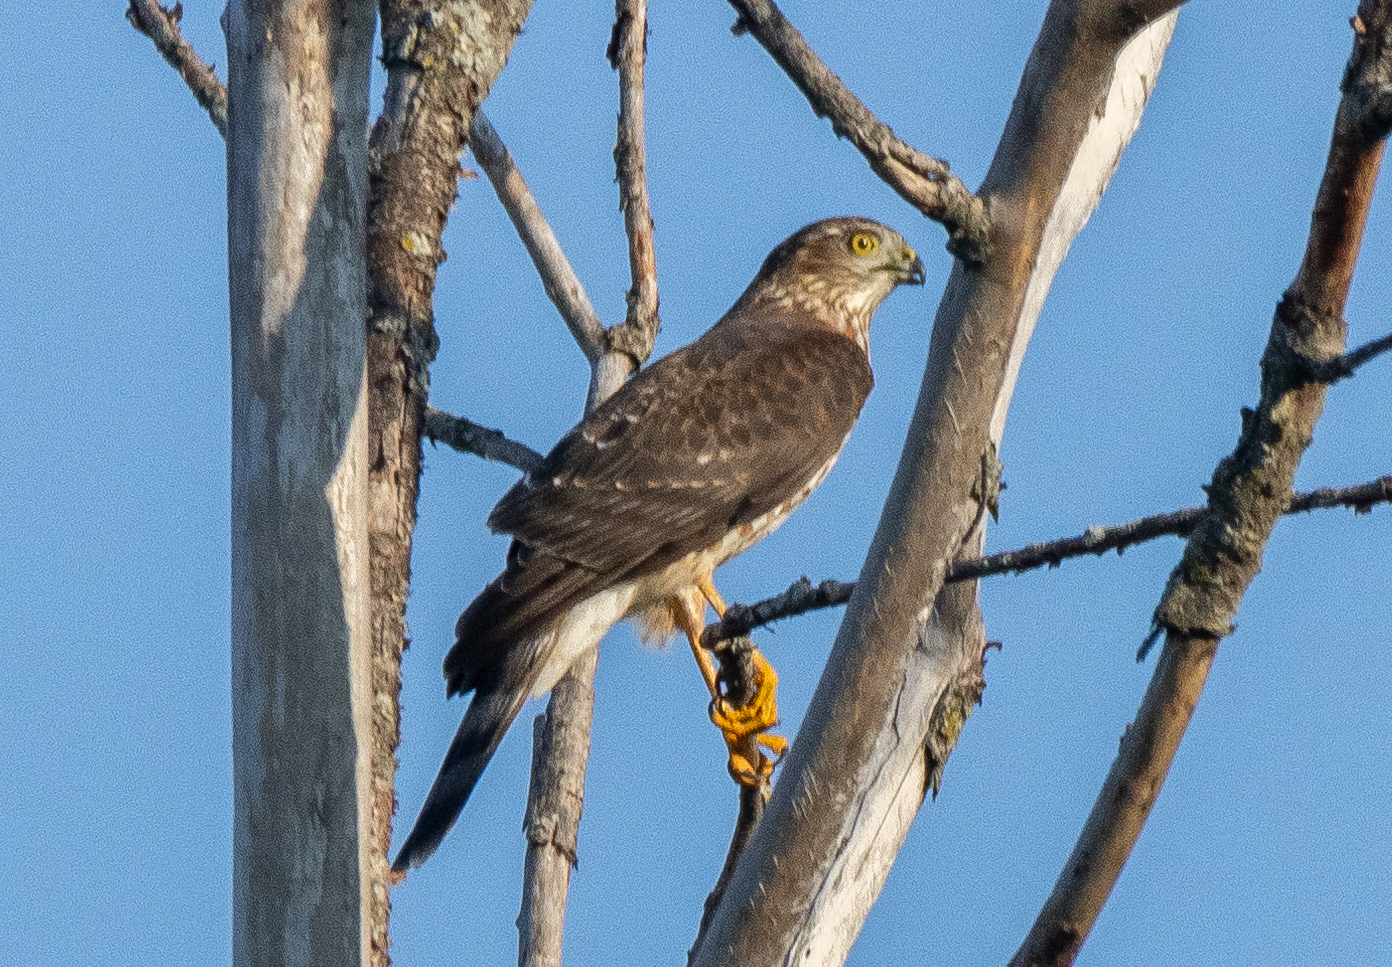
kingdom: Animalia
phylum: Chordata
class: Aves
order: Accipitriformes
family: Accipitridae
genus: Accipiter
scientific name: Accipiter striatus
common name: Sharp-shinned hawk
